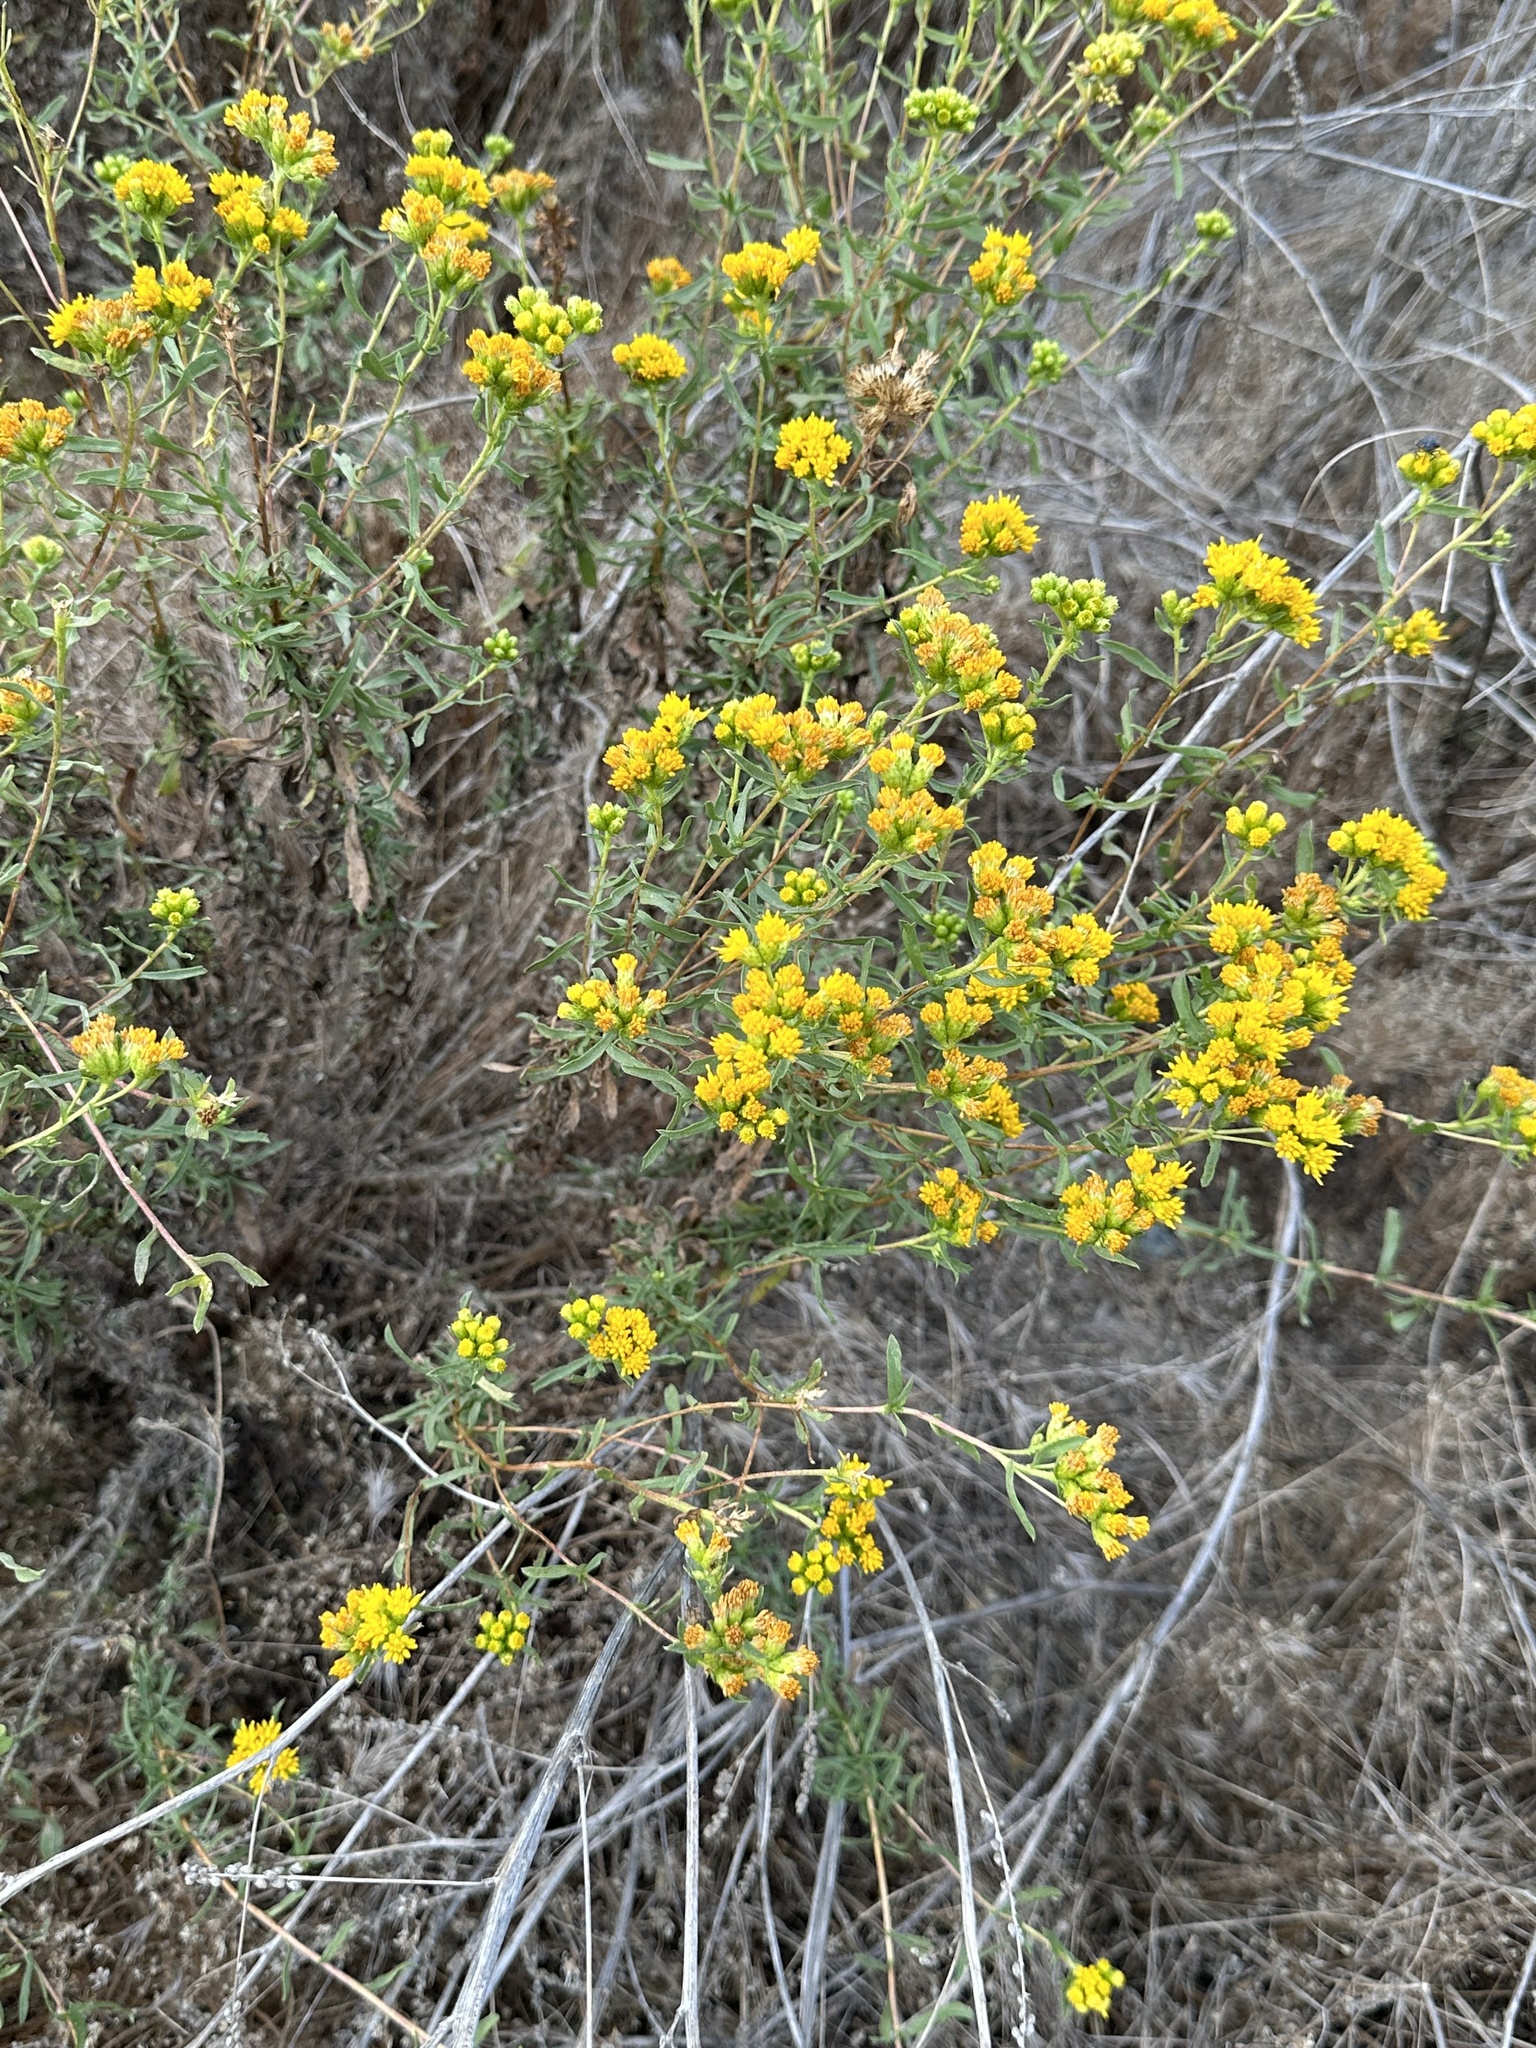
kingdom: Plantae
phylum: Tracheophyta
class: Magnoliopsida
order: Asterales
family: Asteraceae
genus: Isocoma
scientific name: Isocoma menziesii
